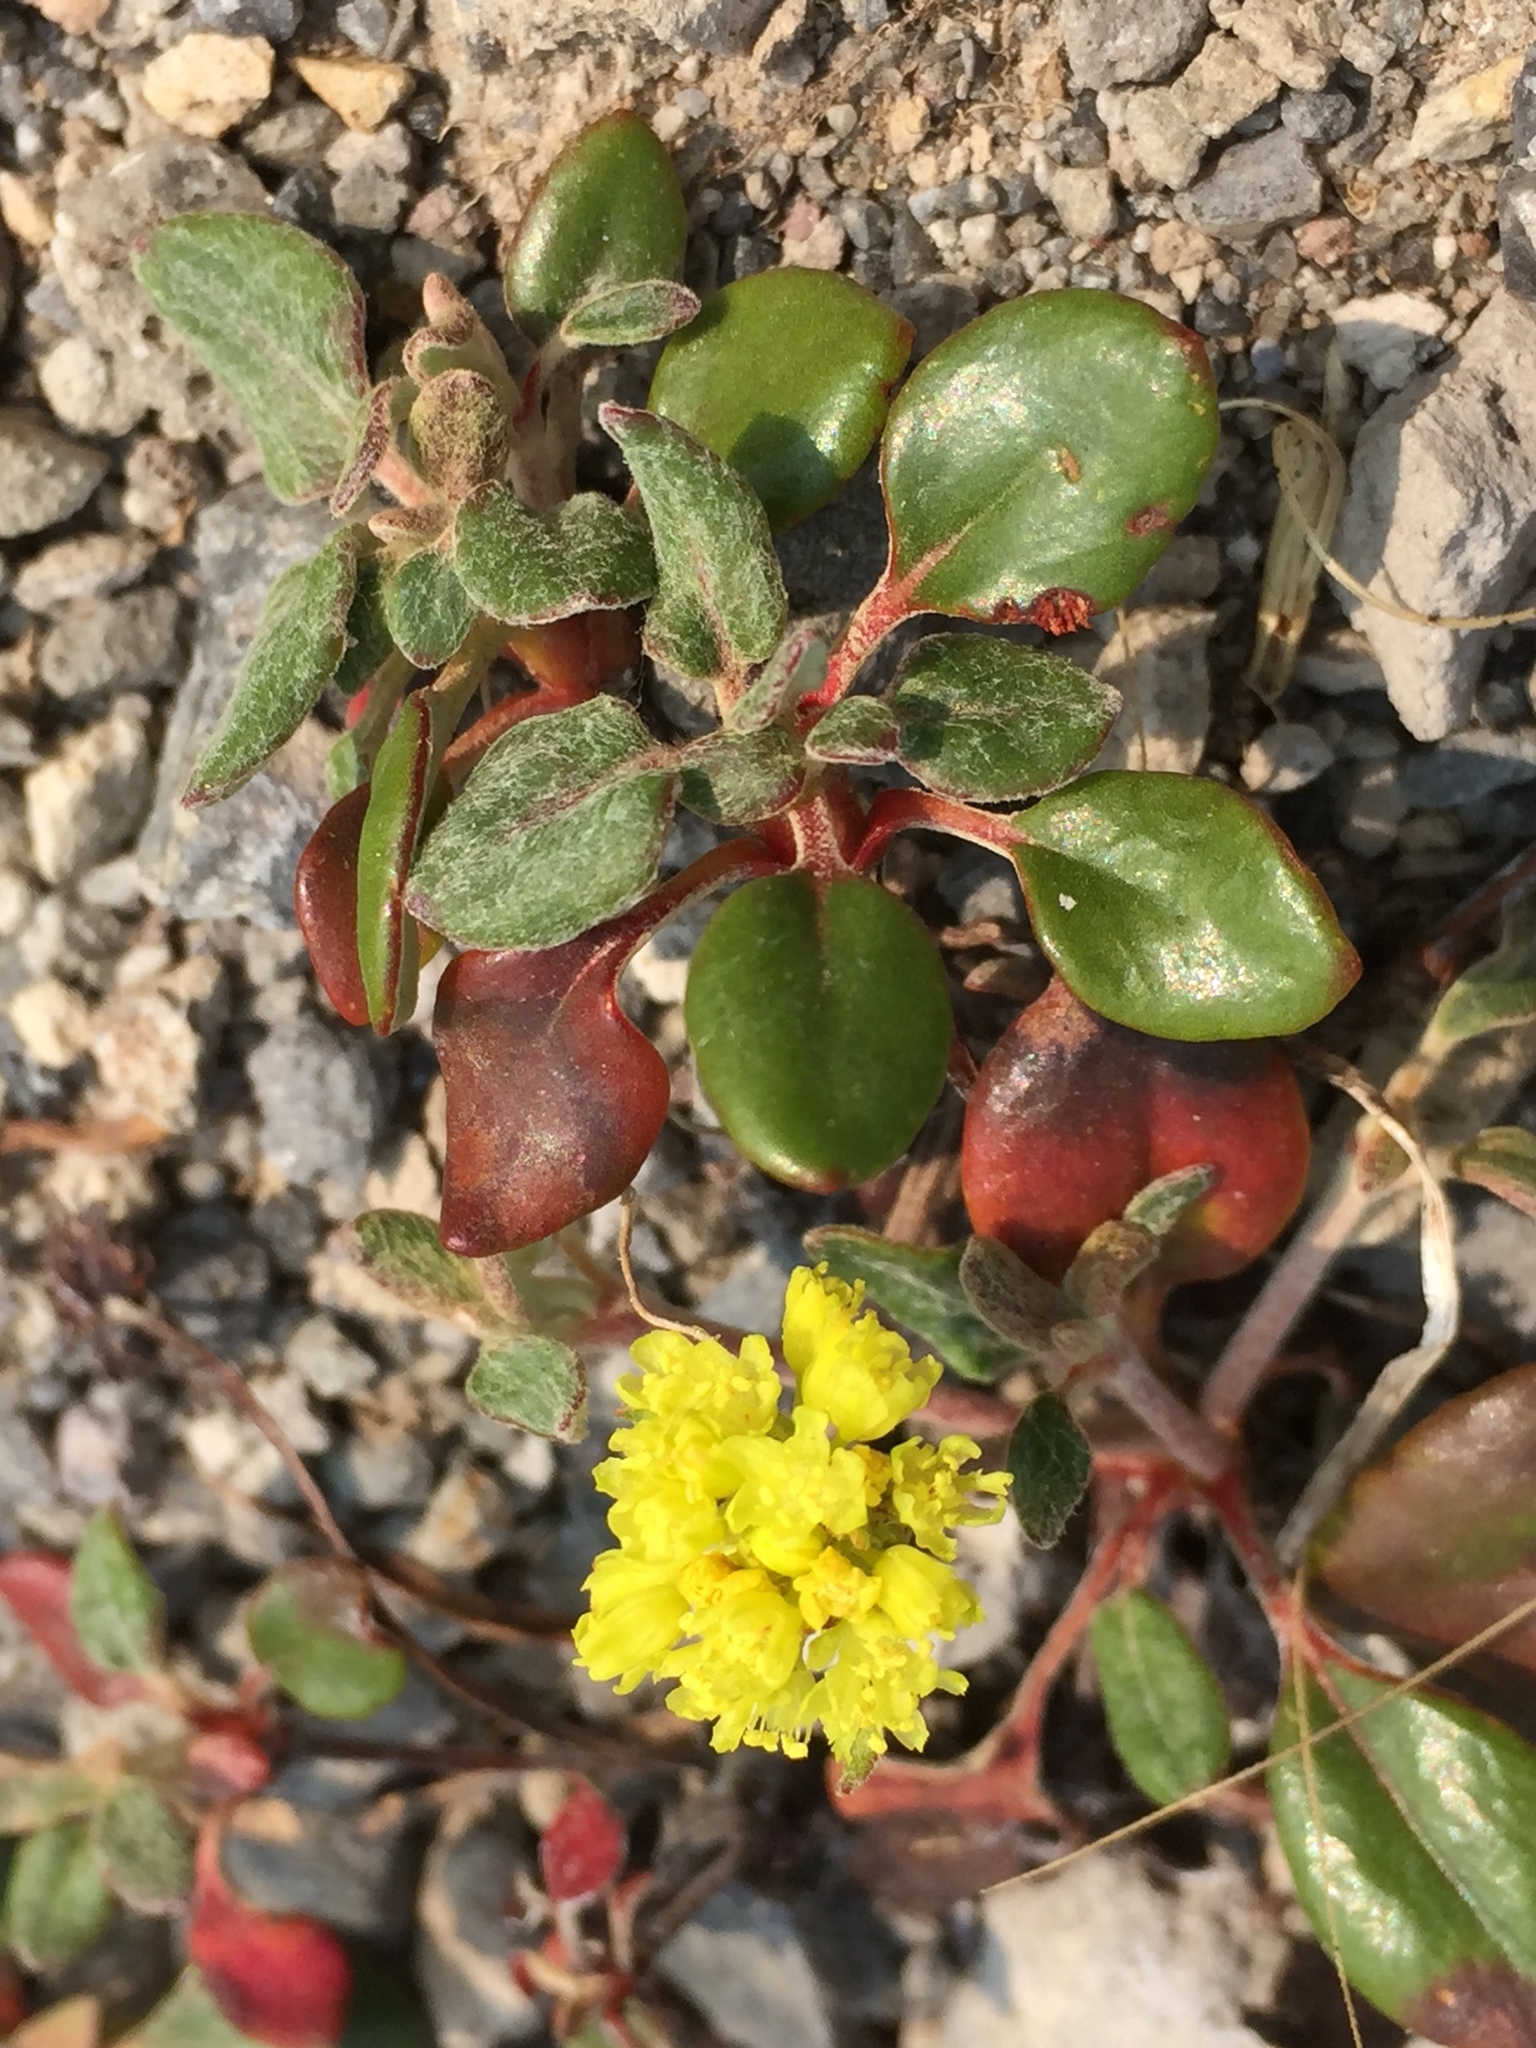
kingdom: Plantae
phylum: Tracheophyta
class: Magnoliopsida
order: Caryophyllales
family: Polygonaceae
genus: Eriogonum
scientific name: Eriogonum marifolium
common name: Marum-leaf wild buckwheat
